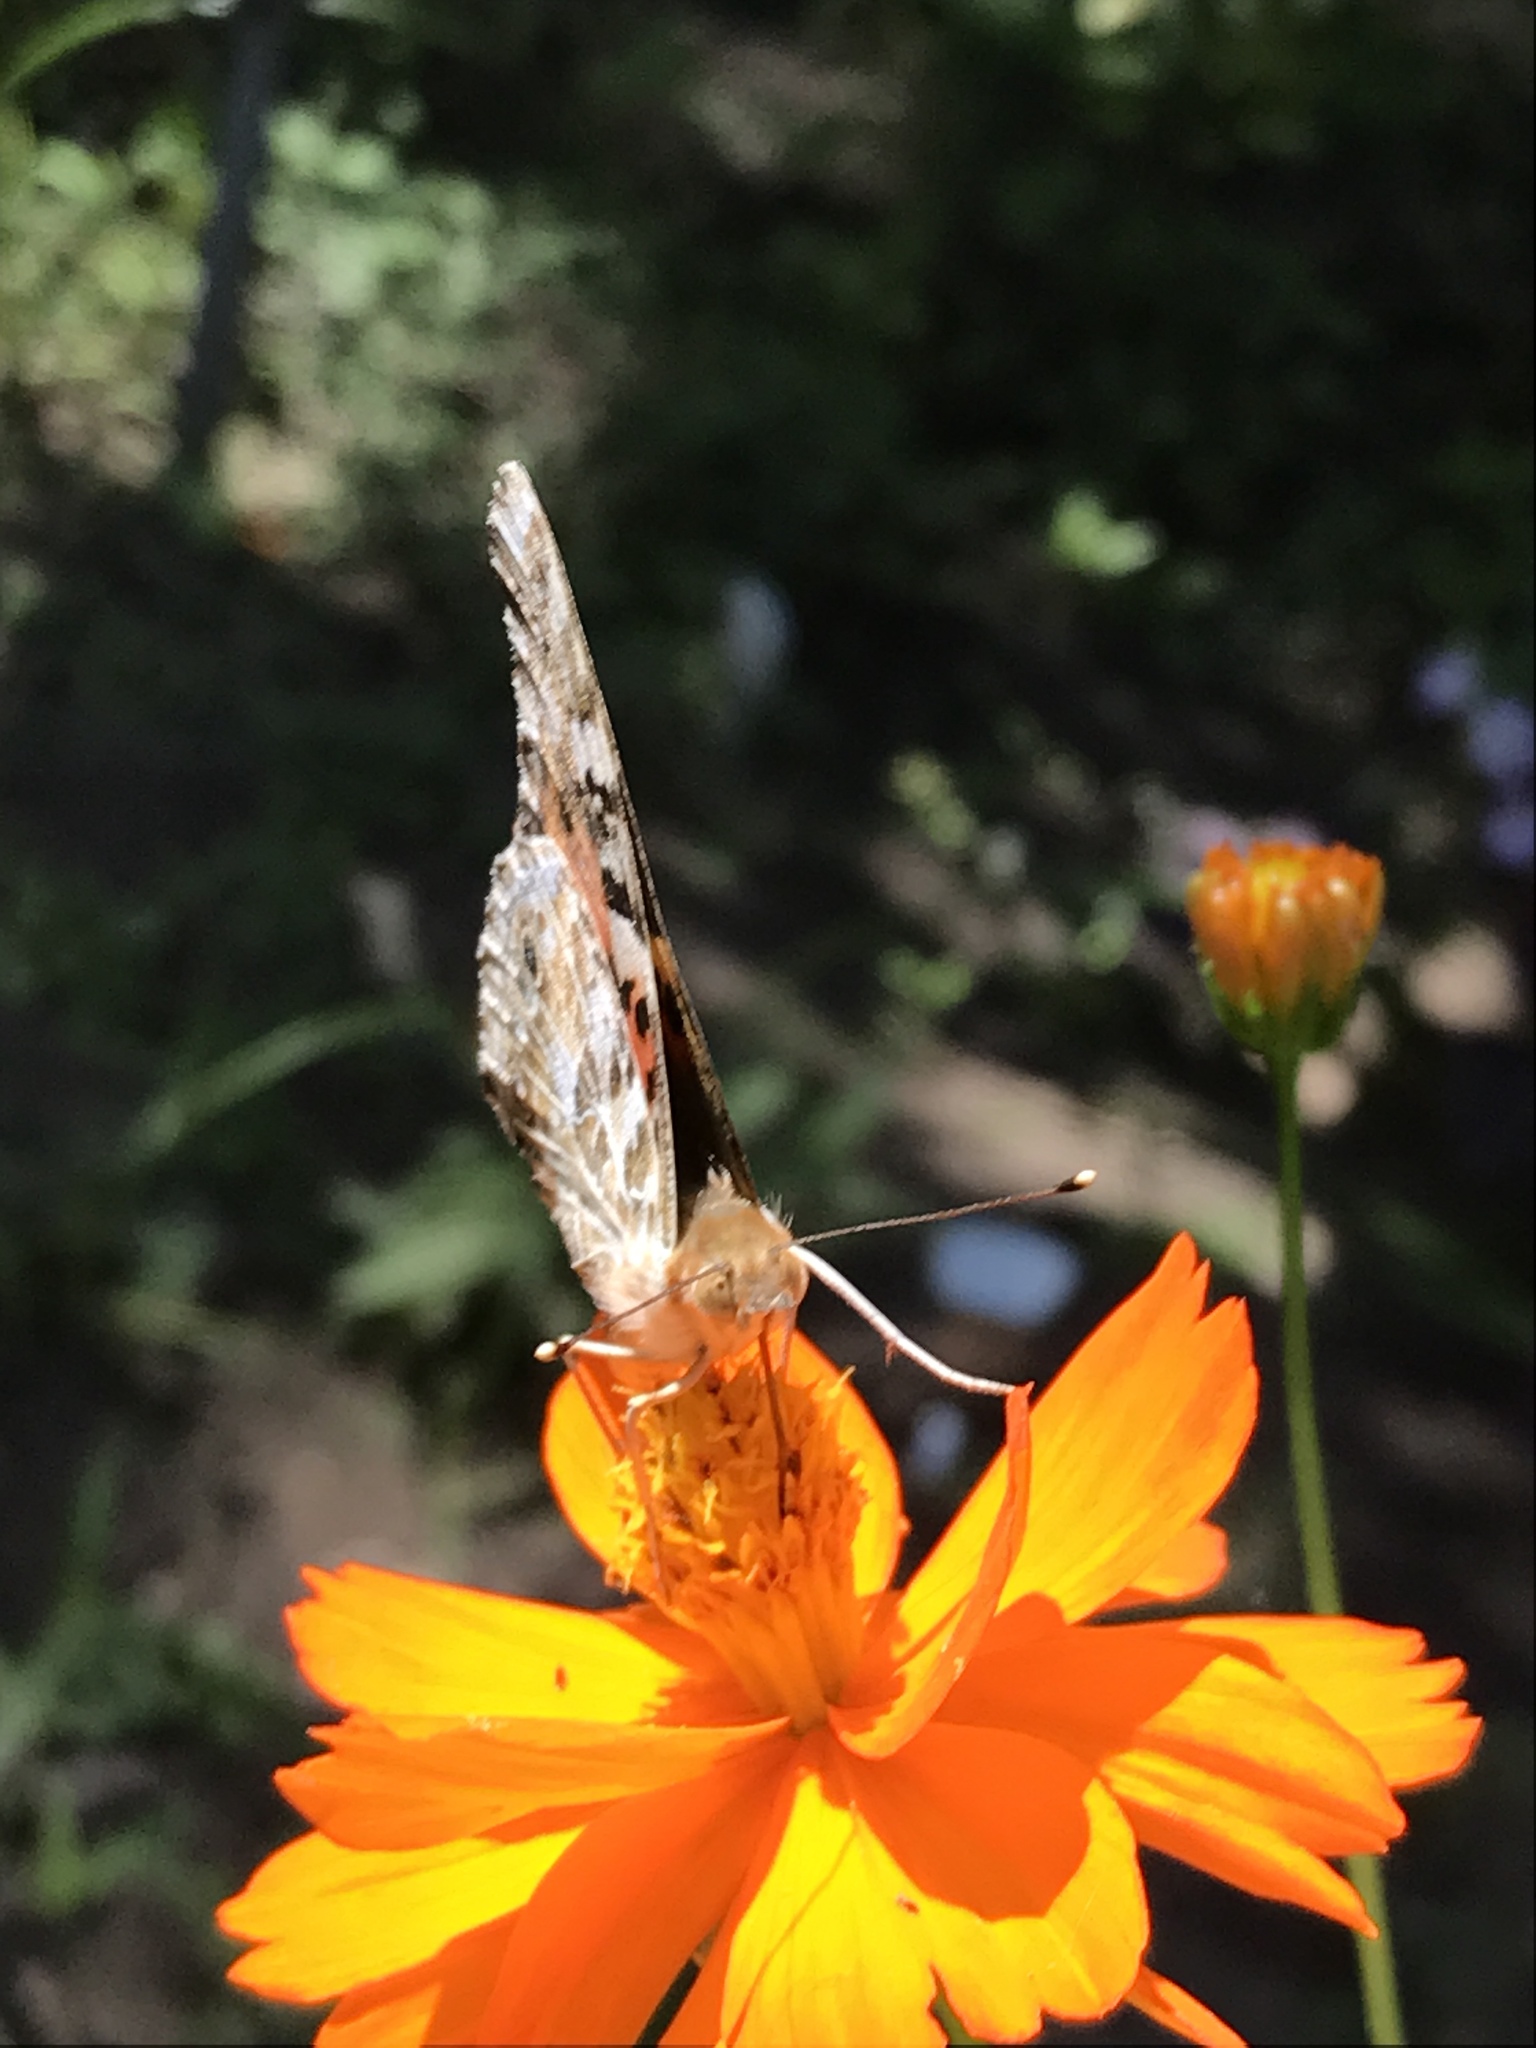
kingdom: Animalia
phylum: Arthropoda
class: Insecta
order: Lepidoptera
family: Nymphalidae
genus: Vanessa
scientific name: Vanessa cardui
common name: Painted lady
